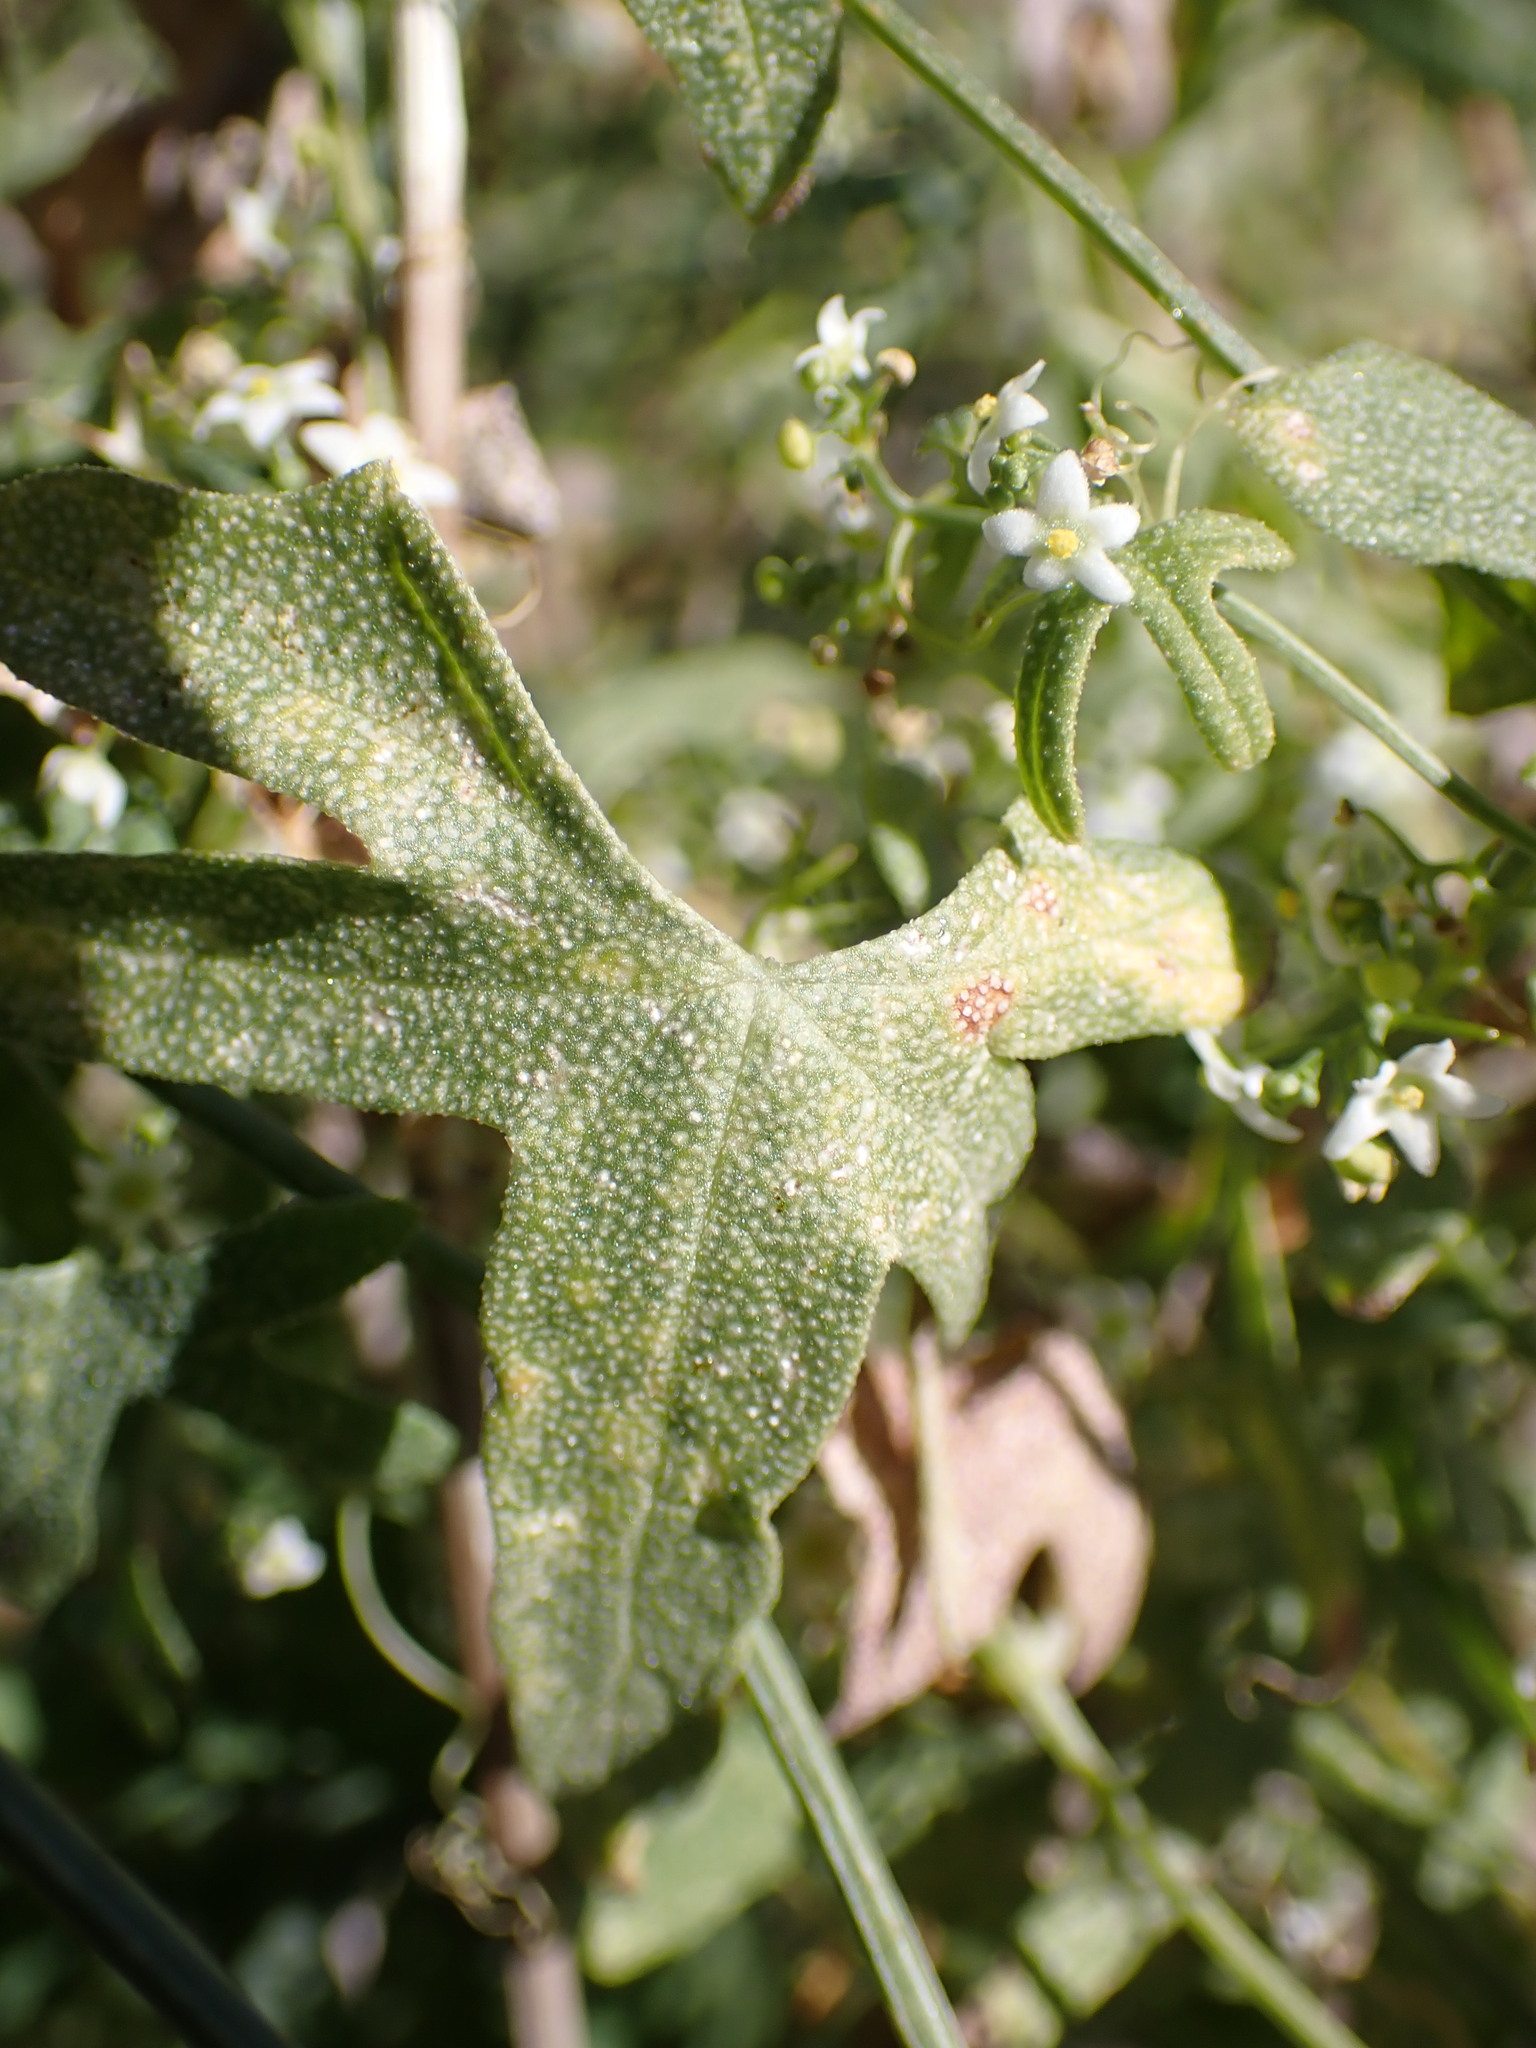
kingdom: Plantae
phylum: Tracheophyta
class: Magnoliopsida
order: Cucurbitales
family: Cucurbitaceae
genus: Echinopepon
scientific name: Echinopepon bigelovii
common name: Desert starvine
